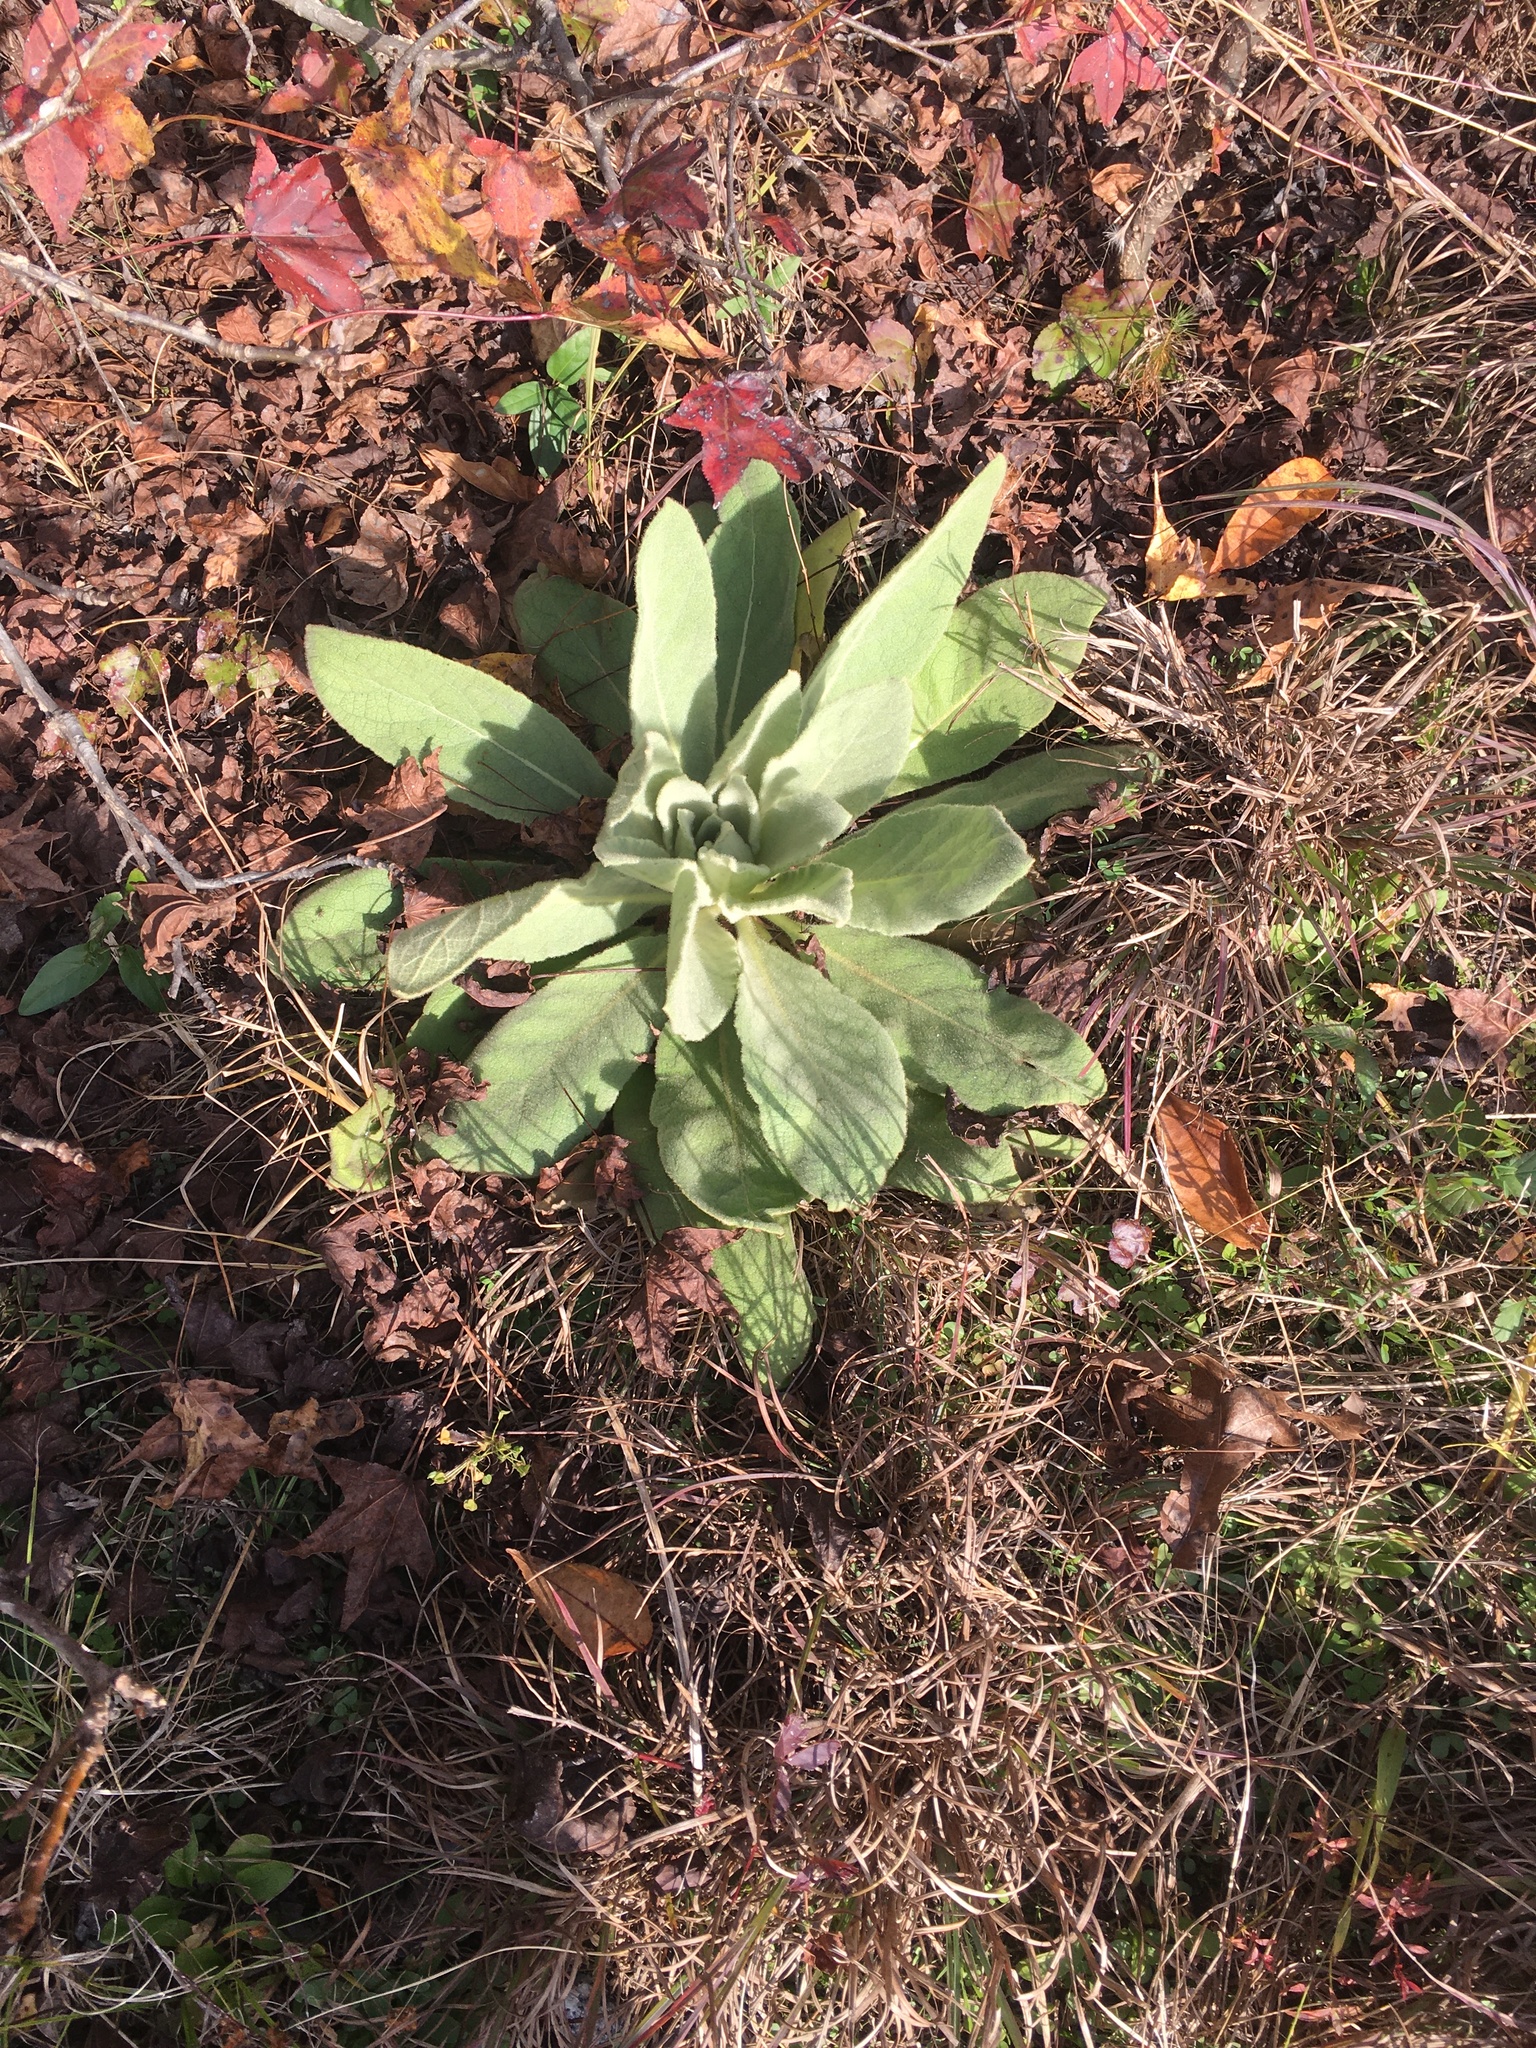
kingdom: Plantae
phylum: Tracheophyta
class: Magnoliopsida
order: Lamiales
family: Scrophulariaceae
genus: Verbascum
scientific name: Verbascum thapsus
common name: Common mullein
